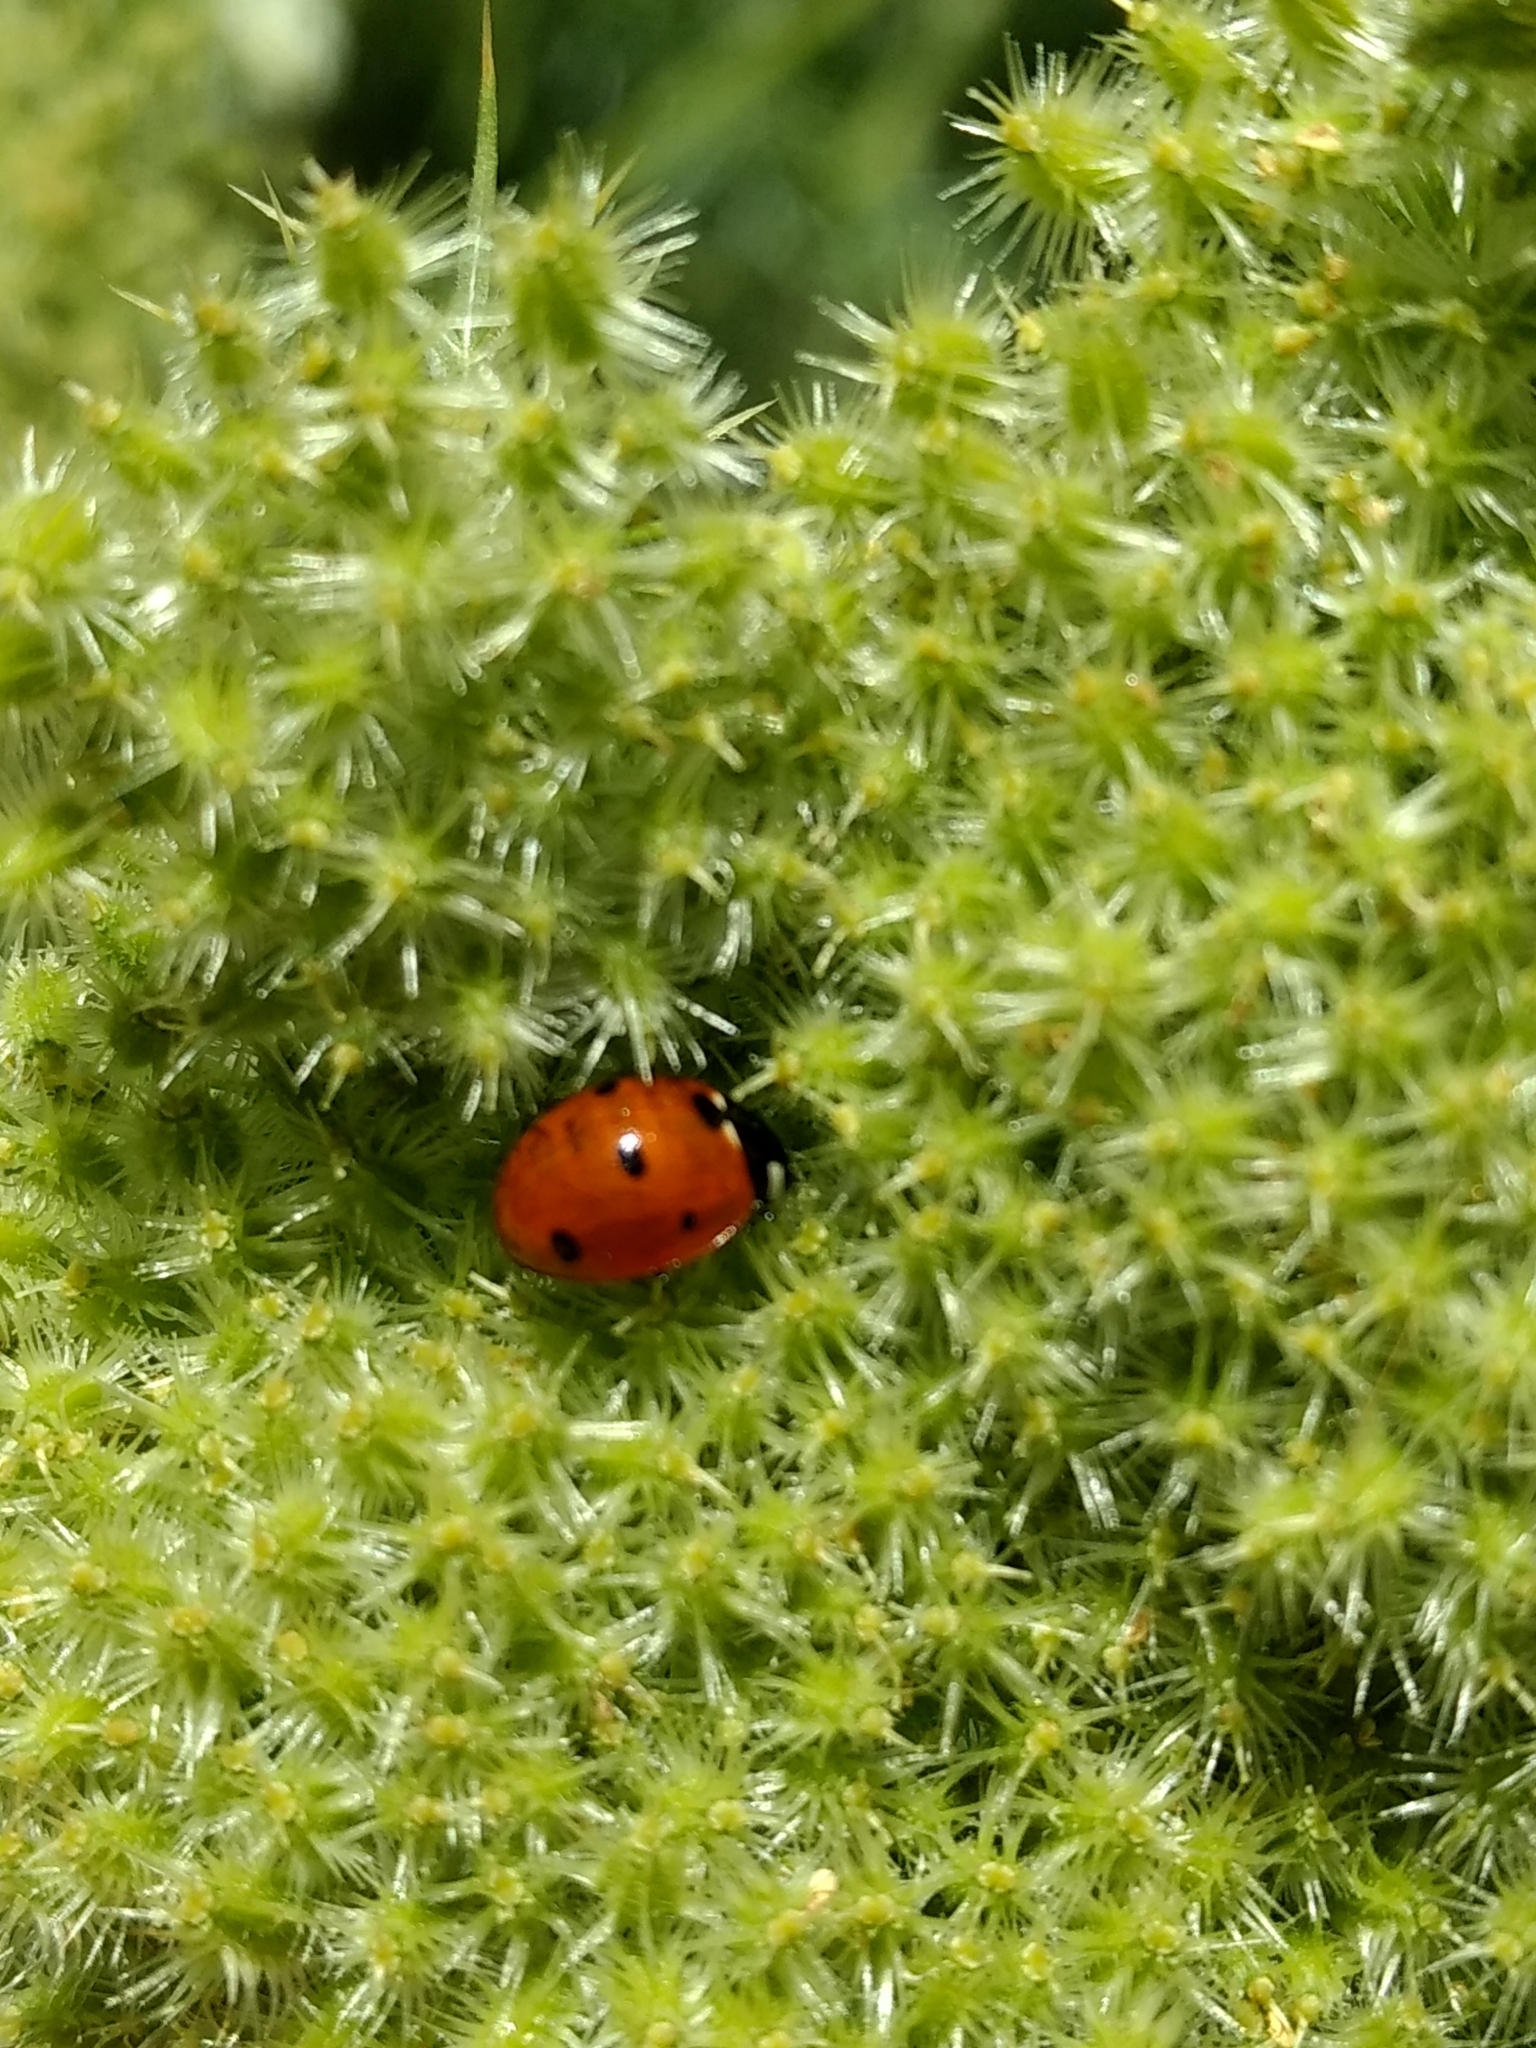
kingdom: Animalia
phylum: Arthropoda
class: Insecta
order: Coleoptera
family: Coccinellidae
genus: Coccinella
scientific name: Coccinella septempunctata
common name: Sevenspotted lady beetle
